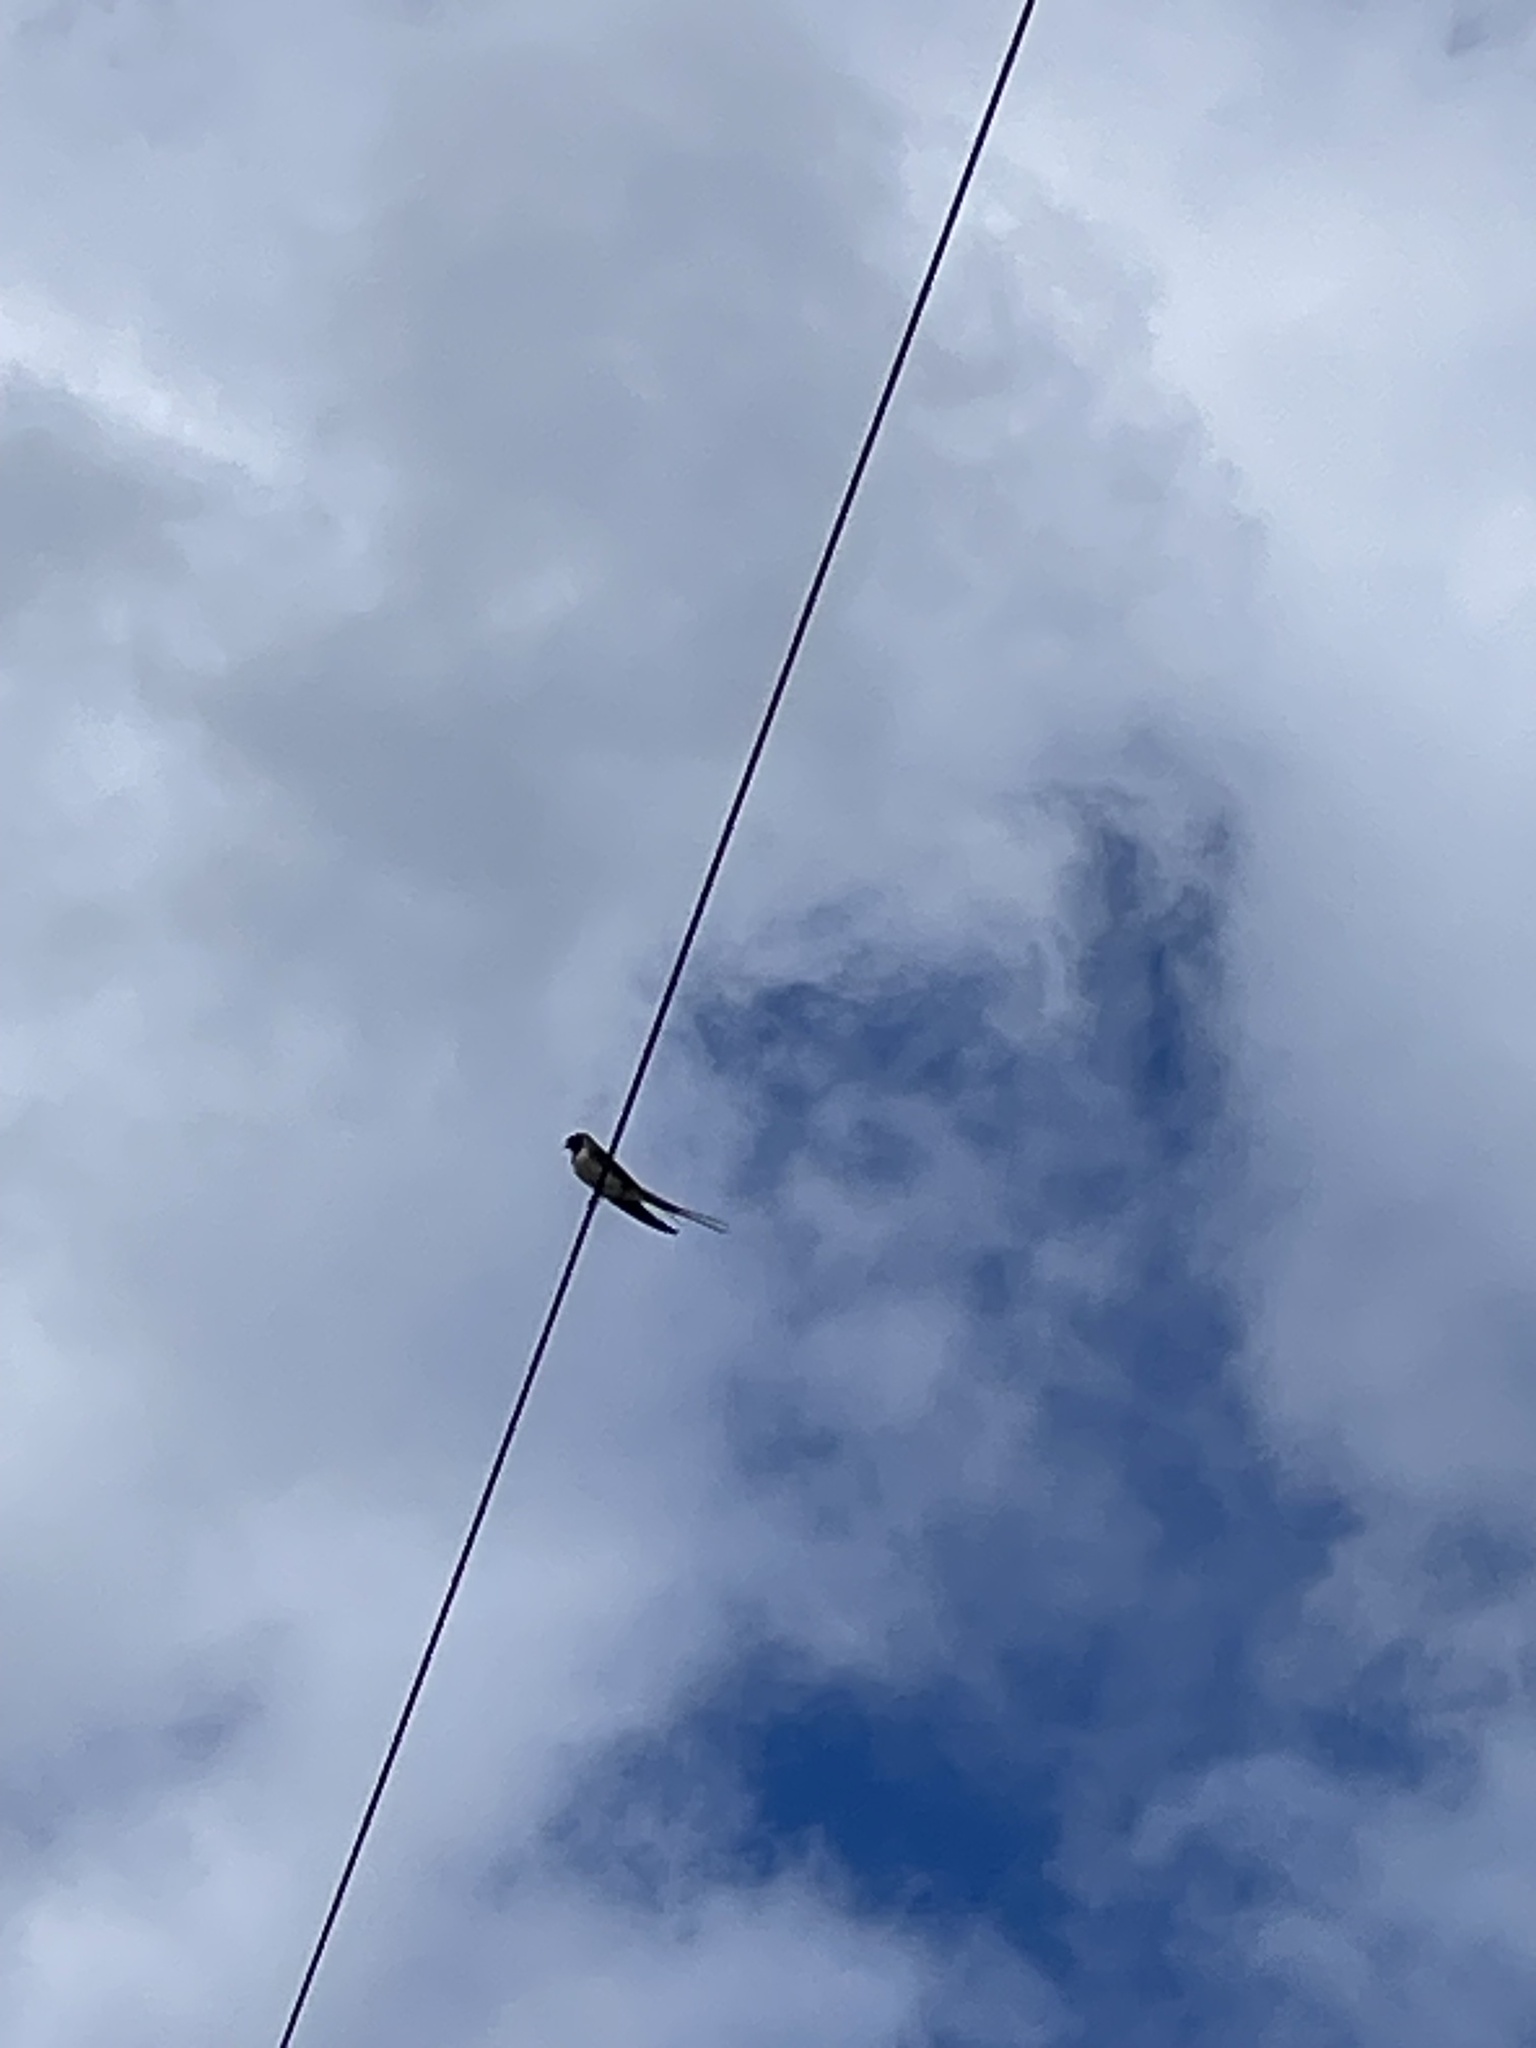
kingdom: Animalia
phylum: Chordata
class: Aves
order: Passeriformes
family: Hirundinidae
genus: Hirundo
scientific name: Hirundo rustica
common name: Barn swallow
